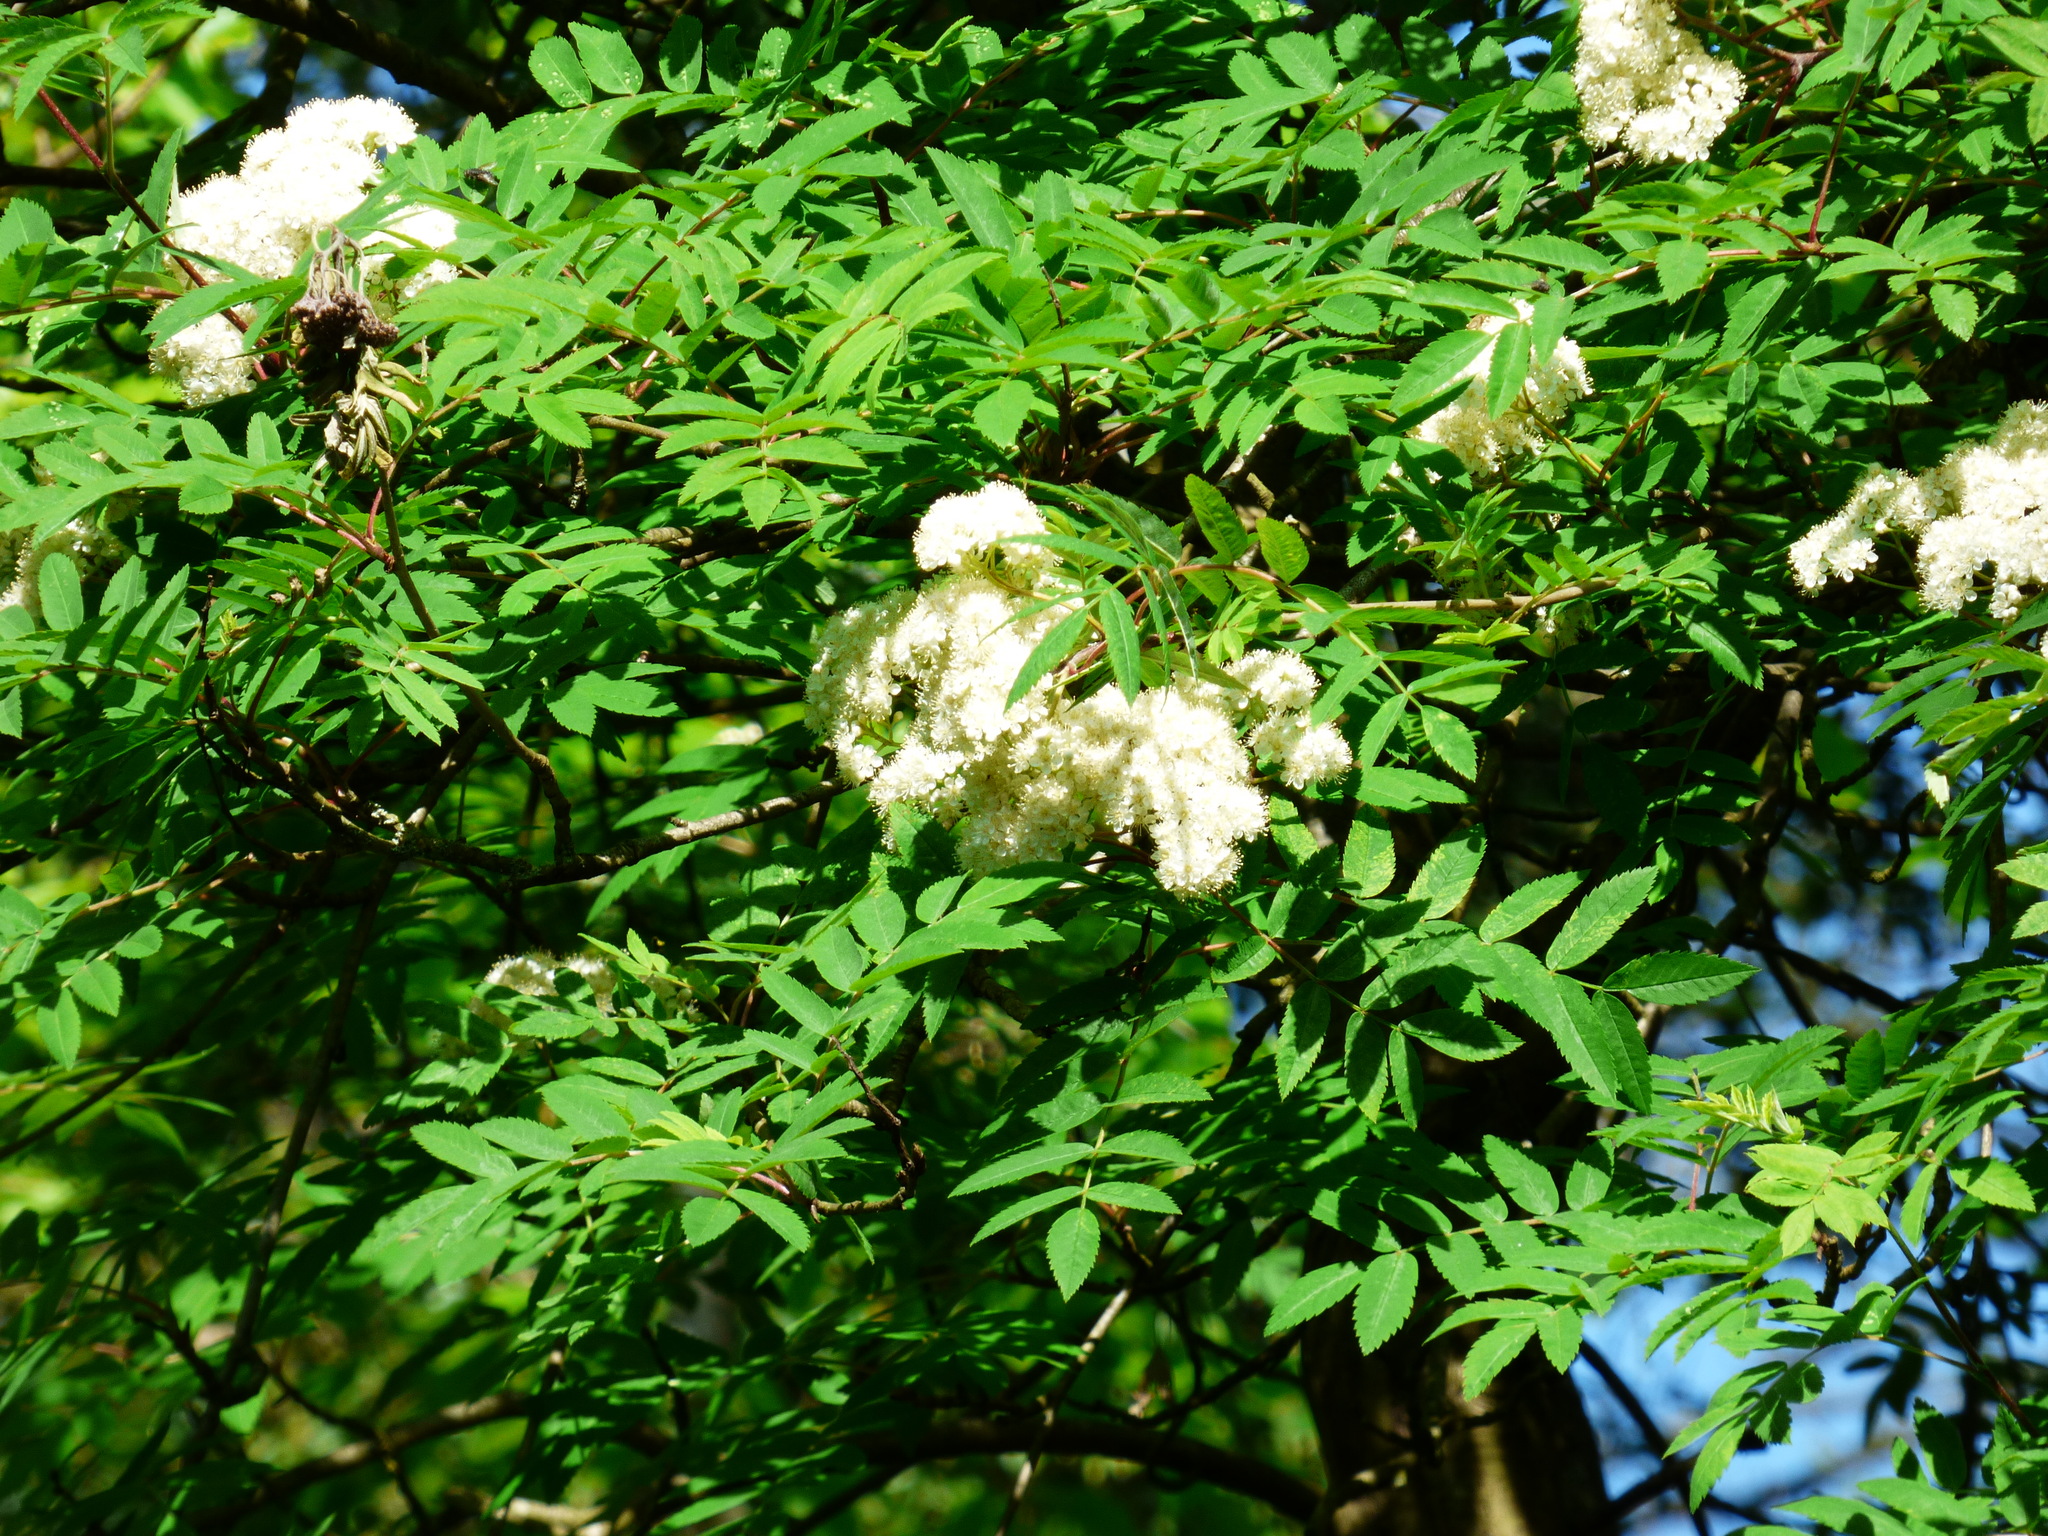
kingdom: Plantae
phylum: Tracheophyta
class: Magnoliopsida
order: Rosales
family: Rosaceae
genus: Sorbus
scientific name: Sorbus aucuparia
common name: Rowan
